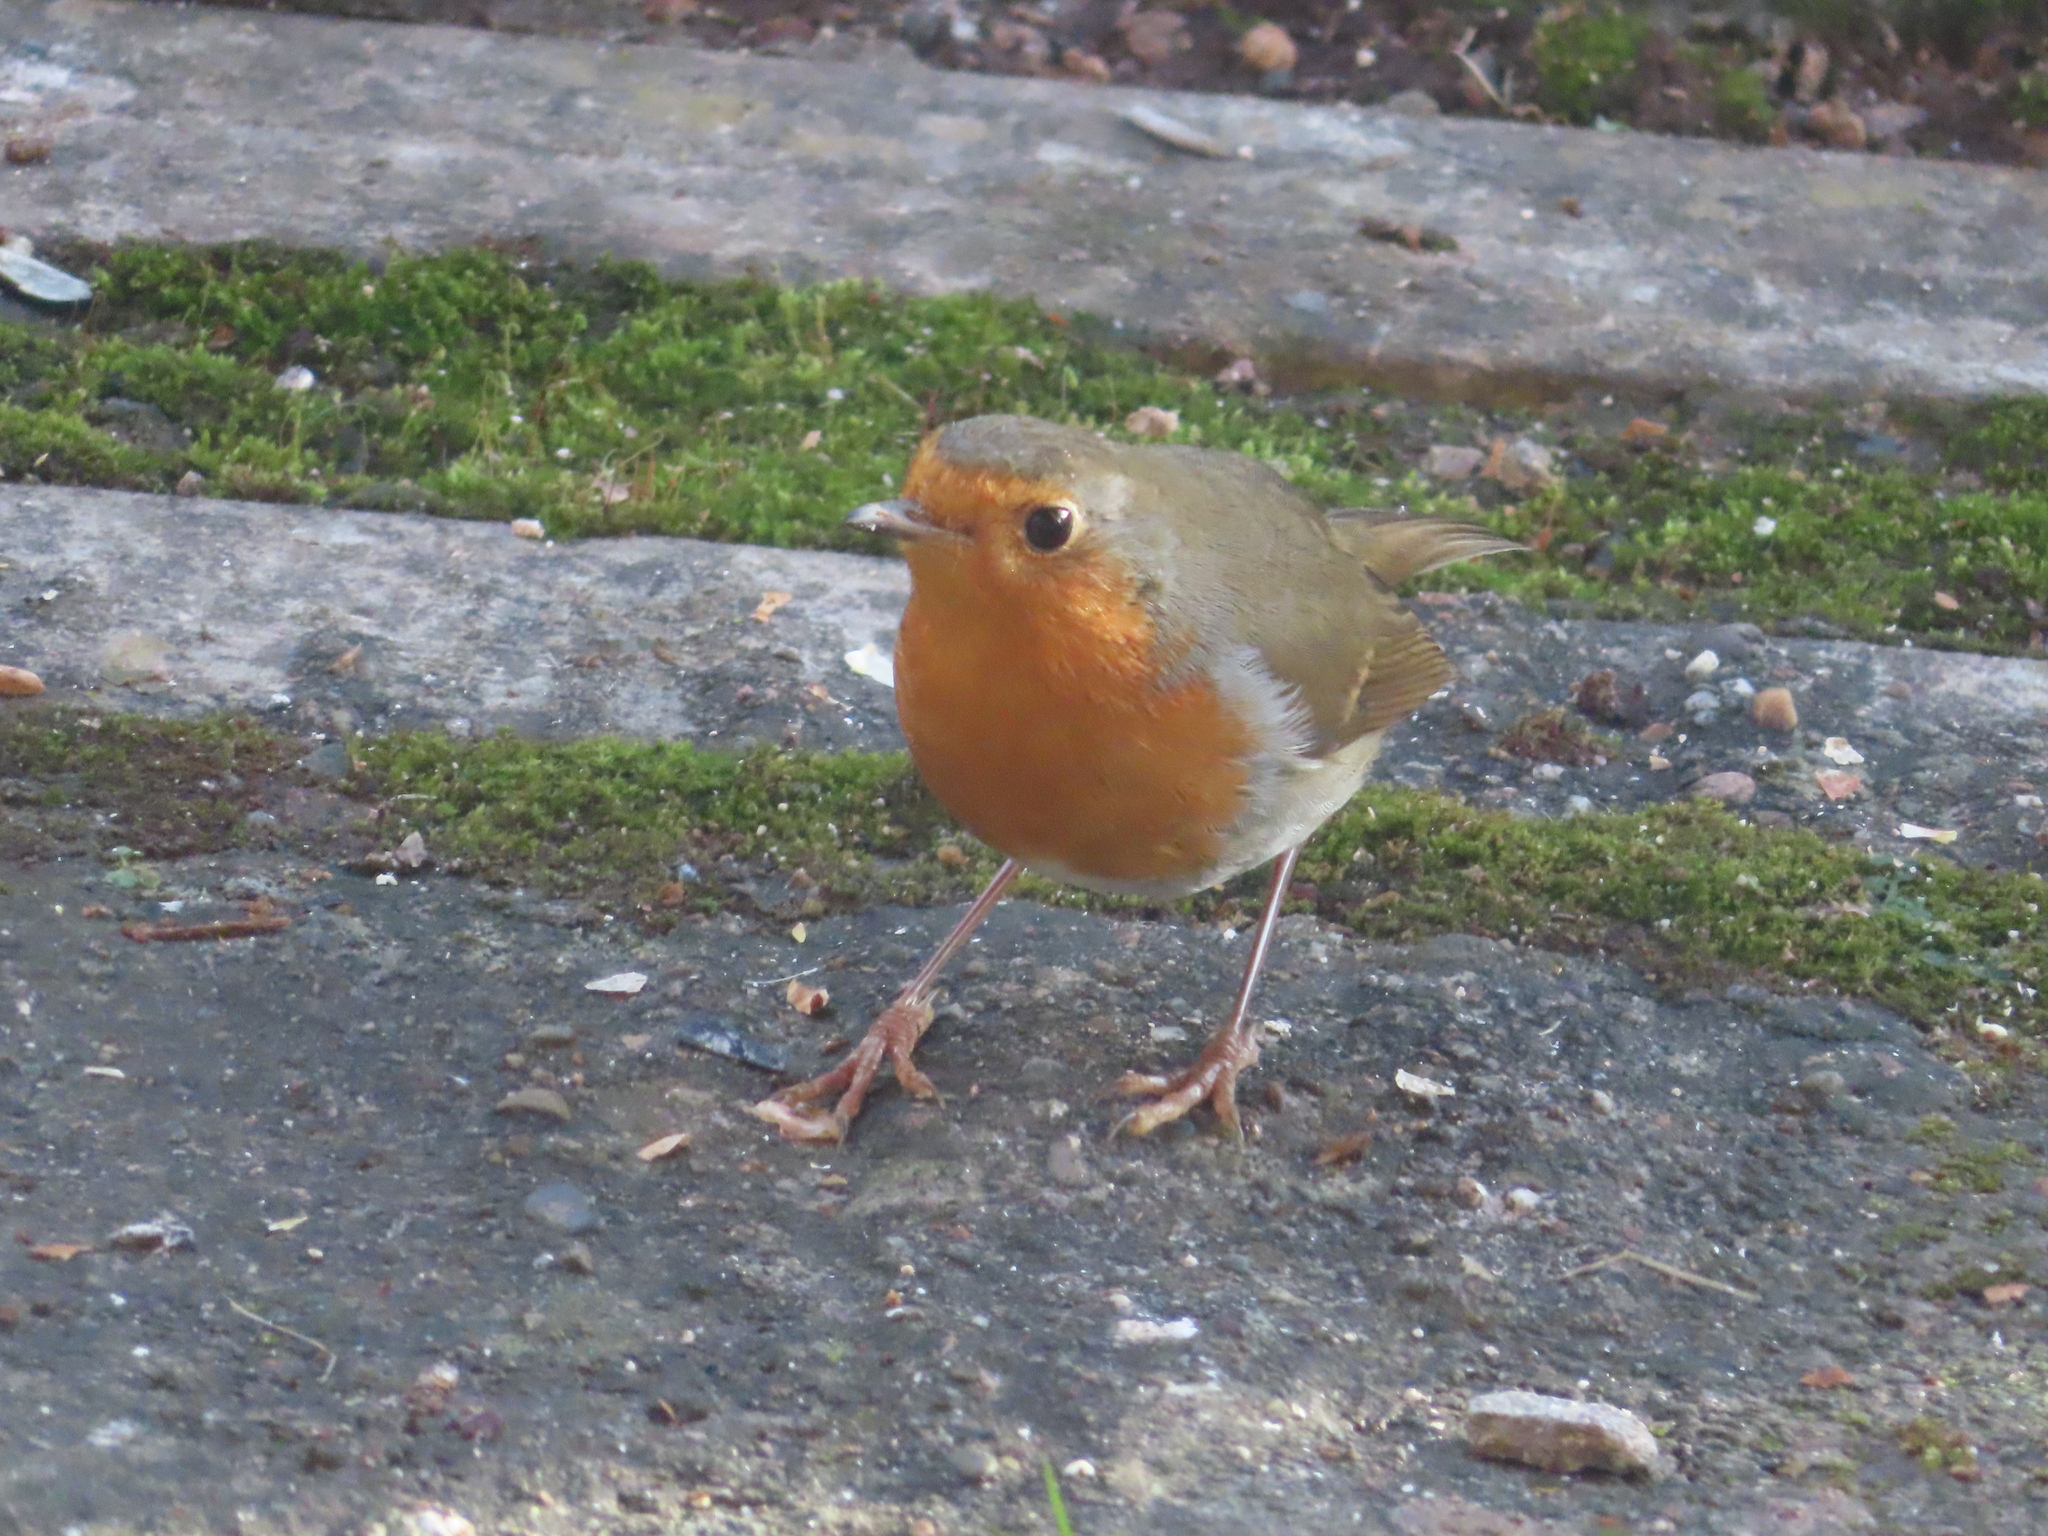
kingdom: Animalia
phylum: Chordata
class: Aves
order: Passeriformes
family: Muscicapidae
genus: Erithacus
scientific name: Erithacus rubecula
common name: European robin
